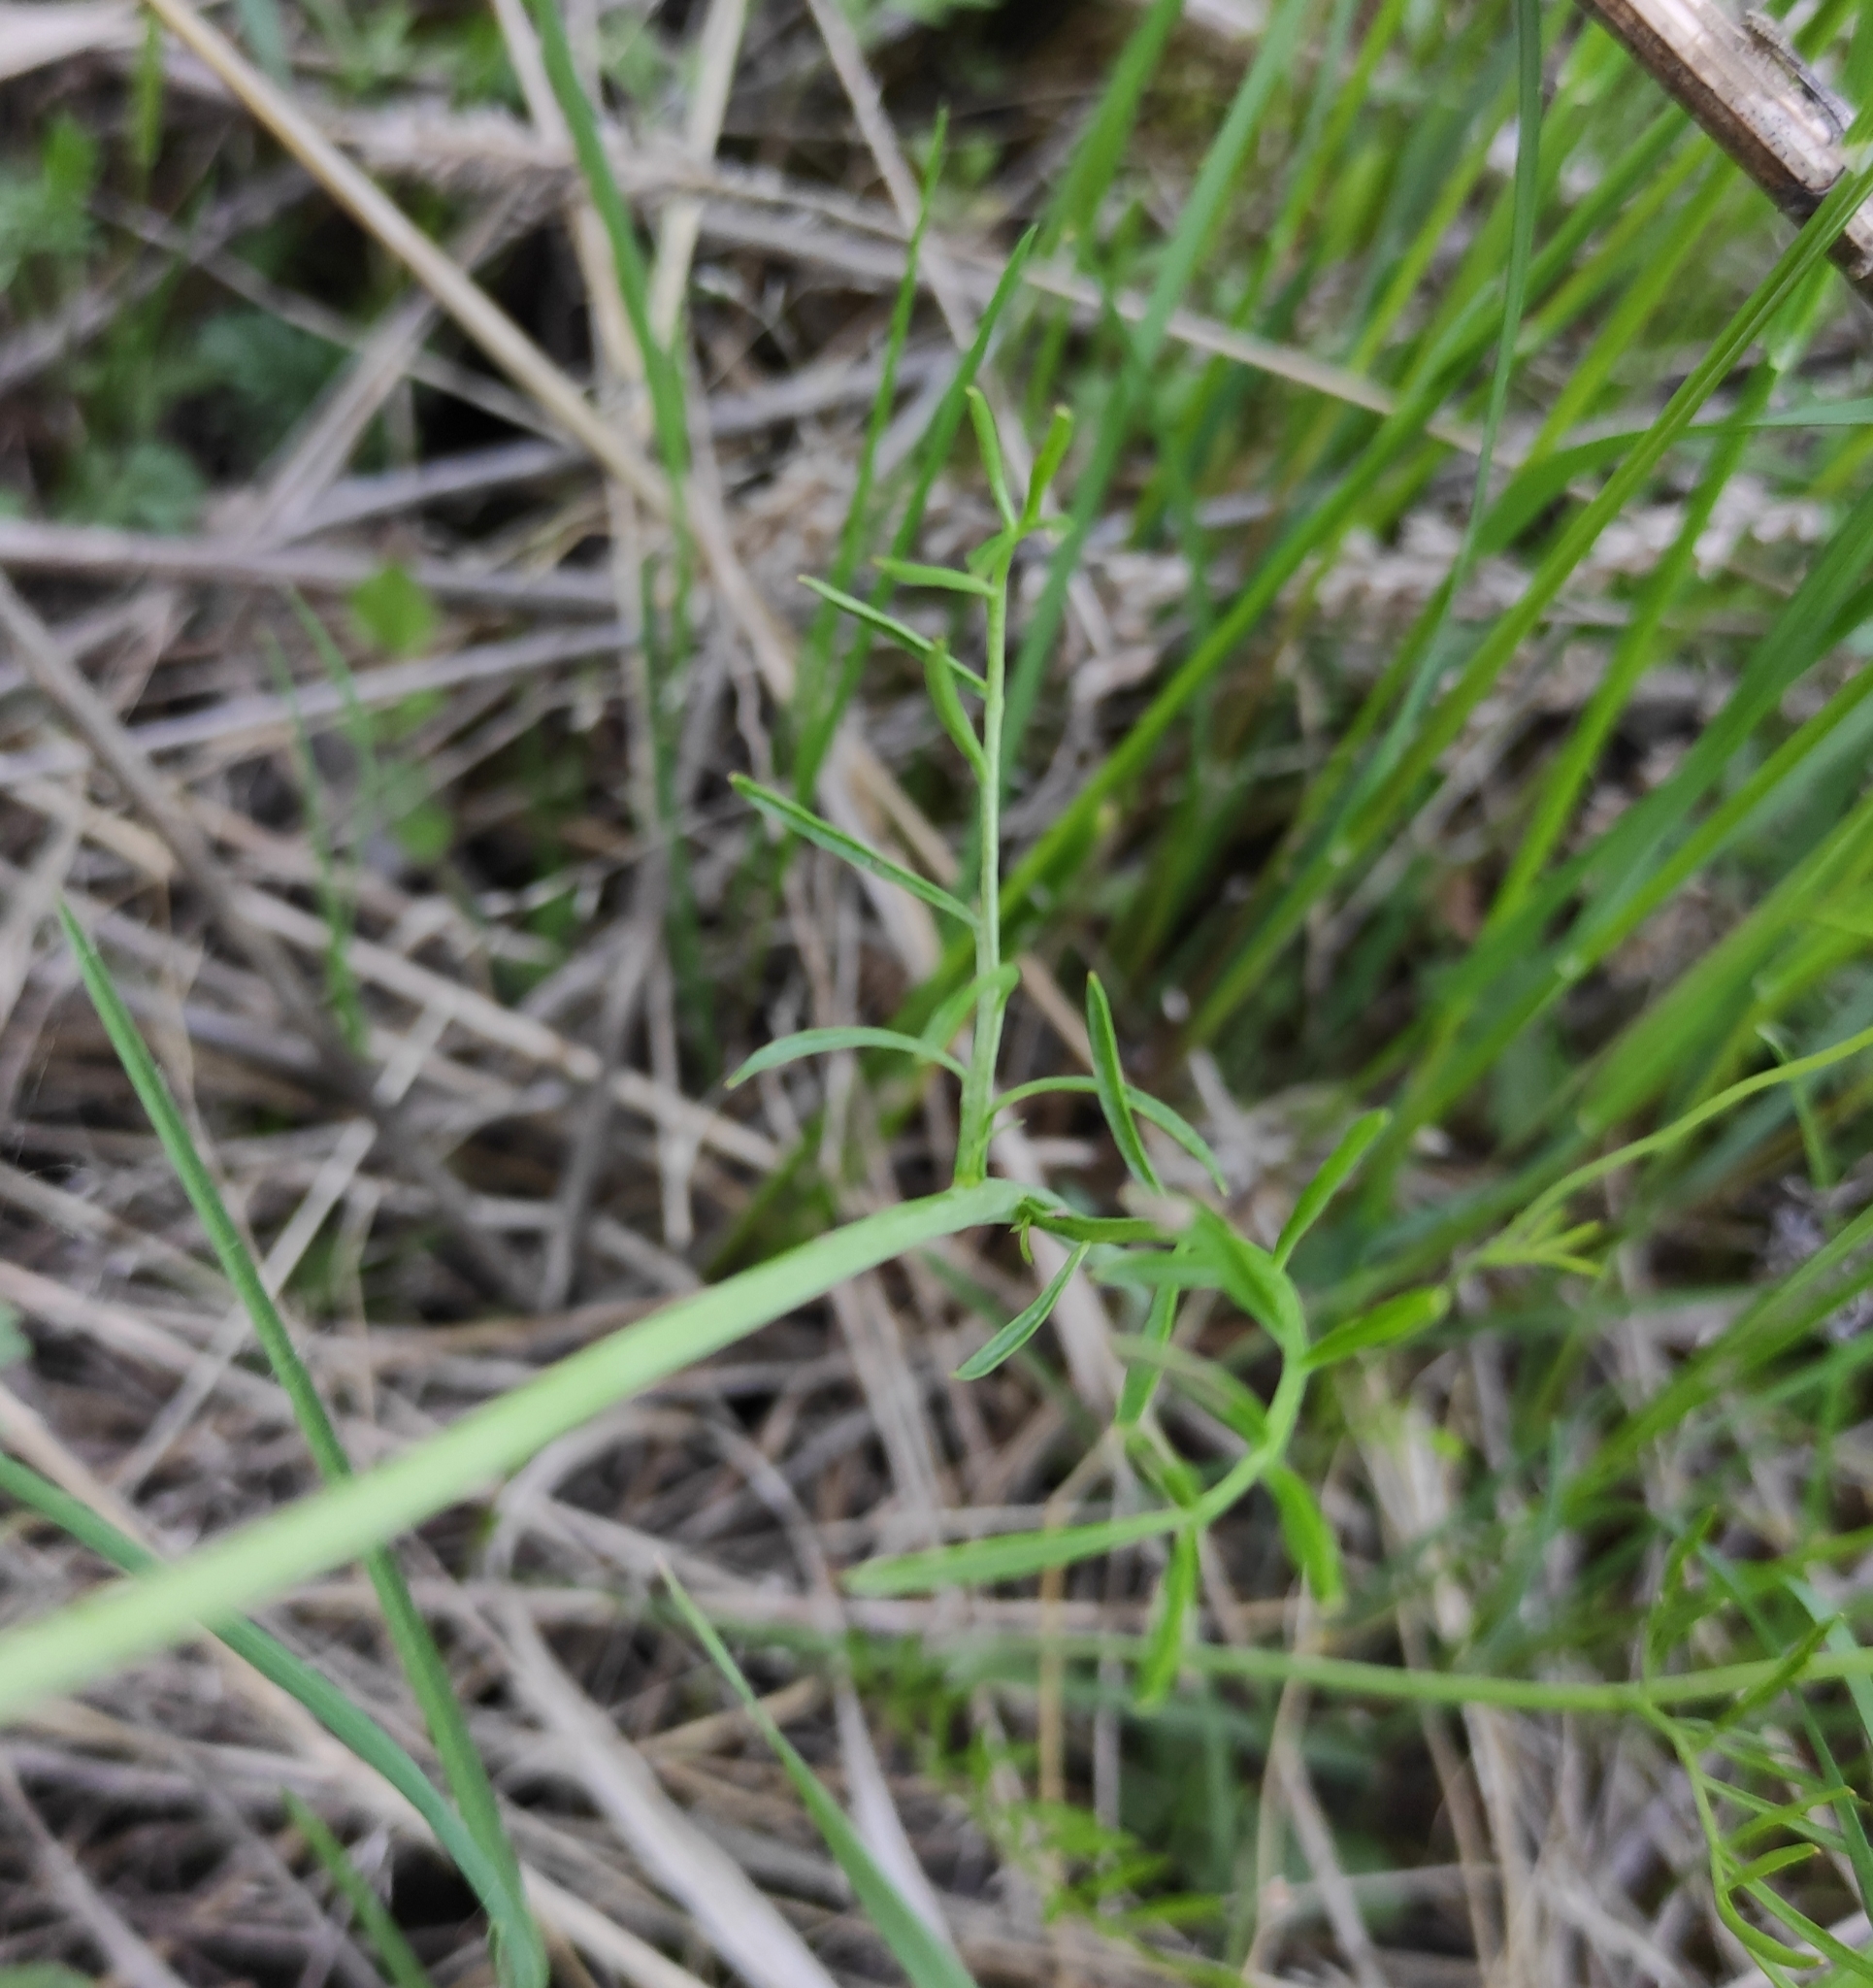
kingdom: Plantae
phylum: Tracheophyta
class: Magnoliopsida
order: Brassicales
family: Brassicaceae
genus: Cardamine
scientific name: Cardamine pratensis
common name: Cuckoo flower
